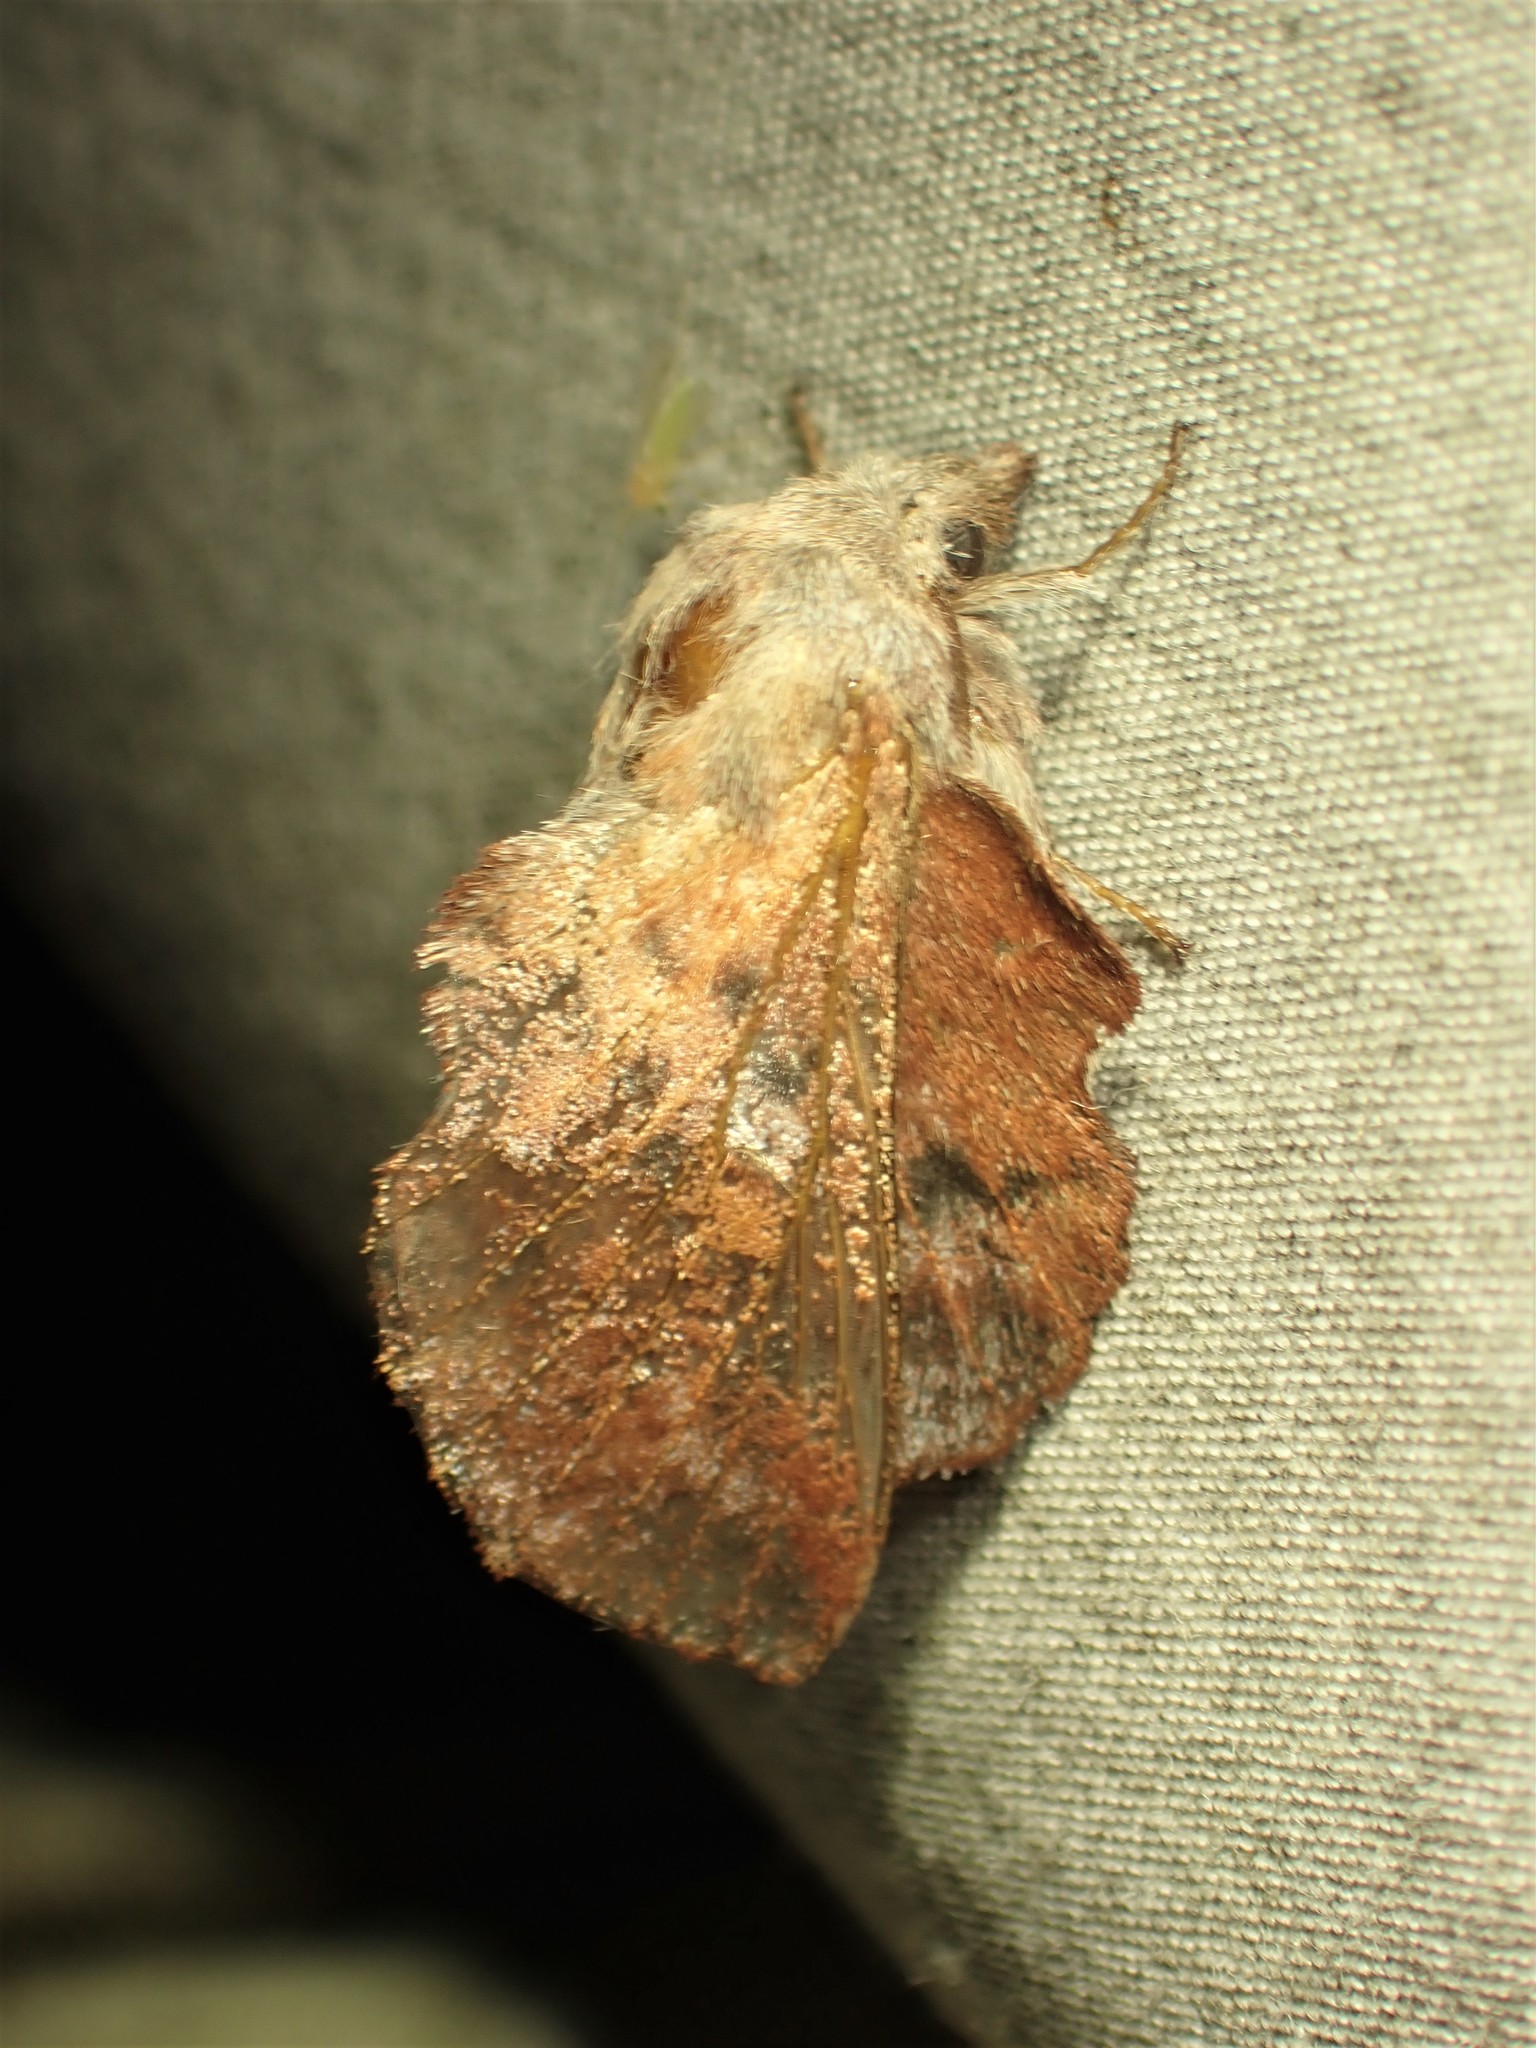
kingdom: Animalia
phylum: Arthropoda
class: Insecta
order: Lepidoptera
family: Lasiocampidae
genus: Phyllodesma
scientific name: Phyllodesma americana
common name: American lappet moth
